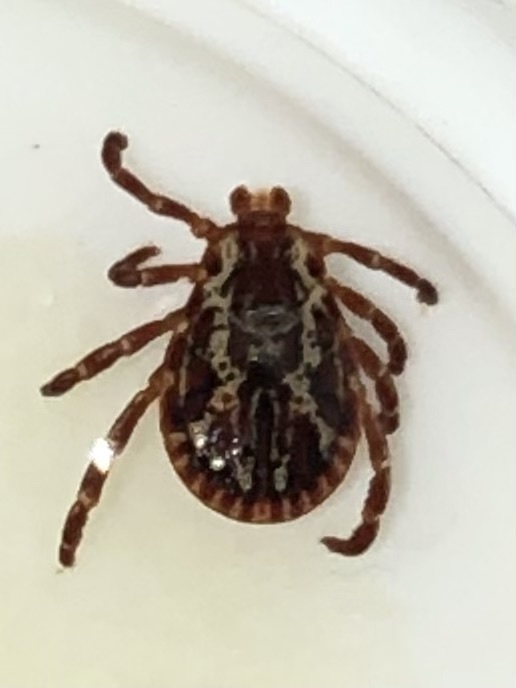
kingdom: Animalia
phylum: Arthropoda
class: Arachnida
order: Ixodida
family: Ixodidae
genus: Dermacentor
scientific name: Dermacentor variabilis
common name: American dog tick
